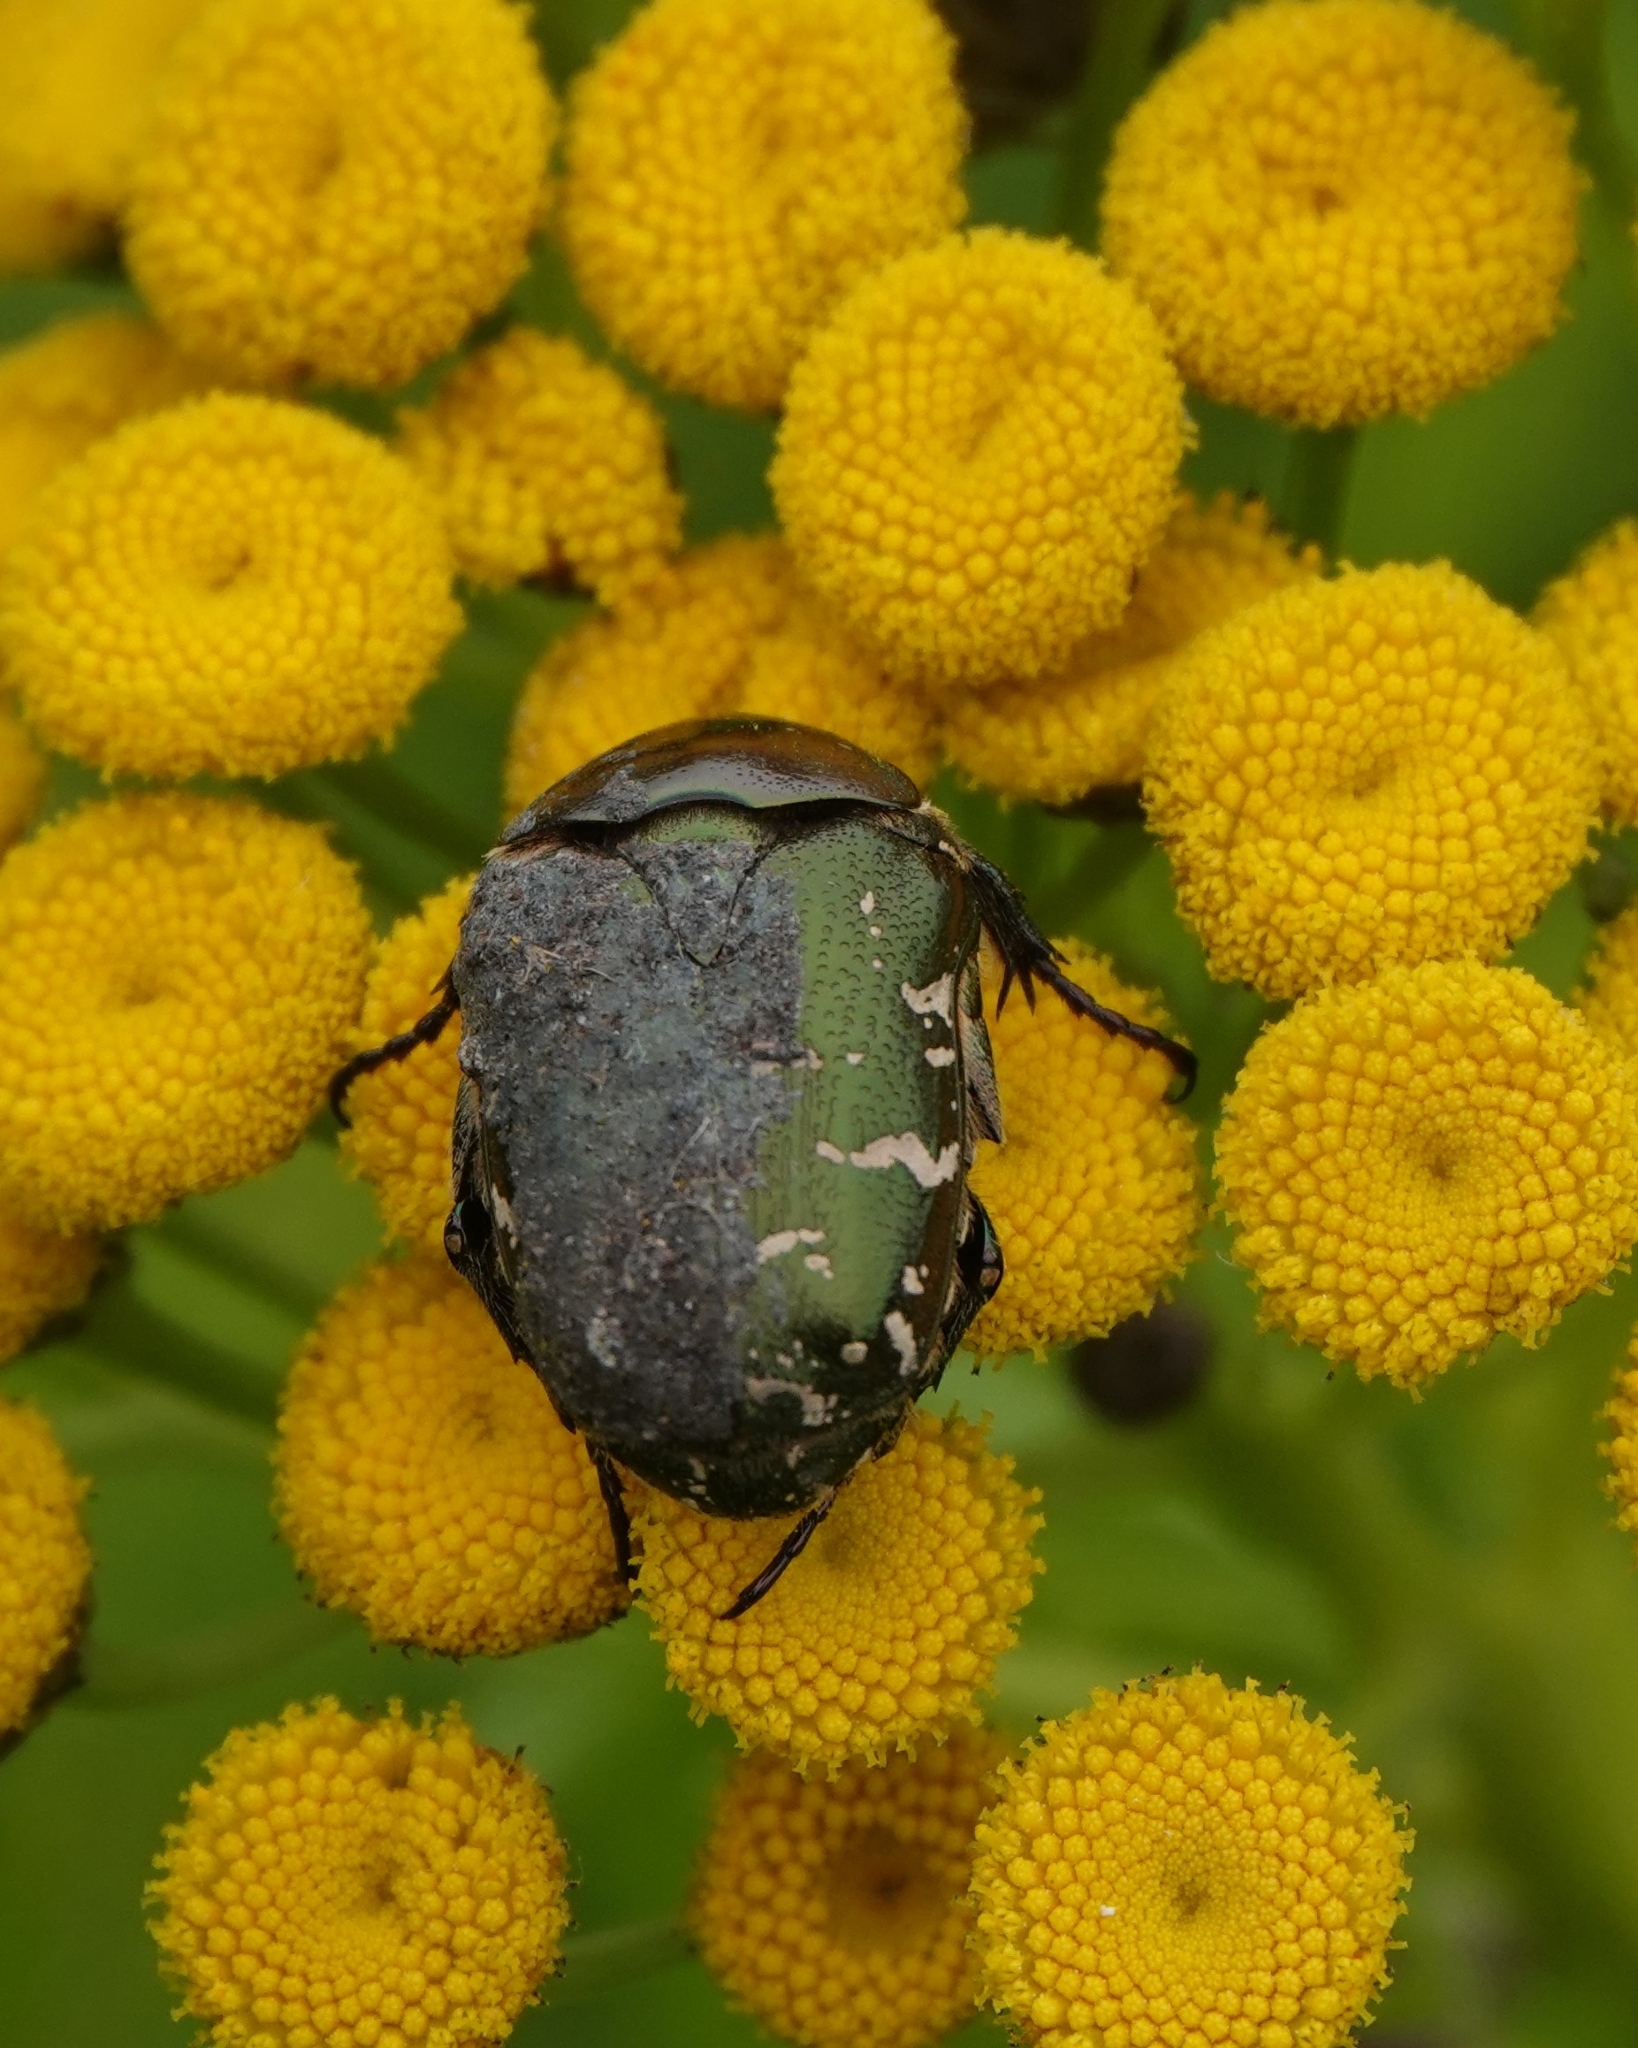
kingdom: Animalia
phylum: Arthropoda
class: Insecta
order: Coleoptera
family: Scarabaeidae
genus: Protaetia
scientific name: Protaetia cuprea
